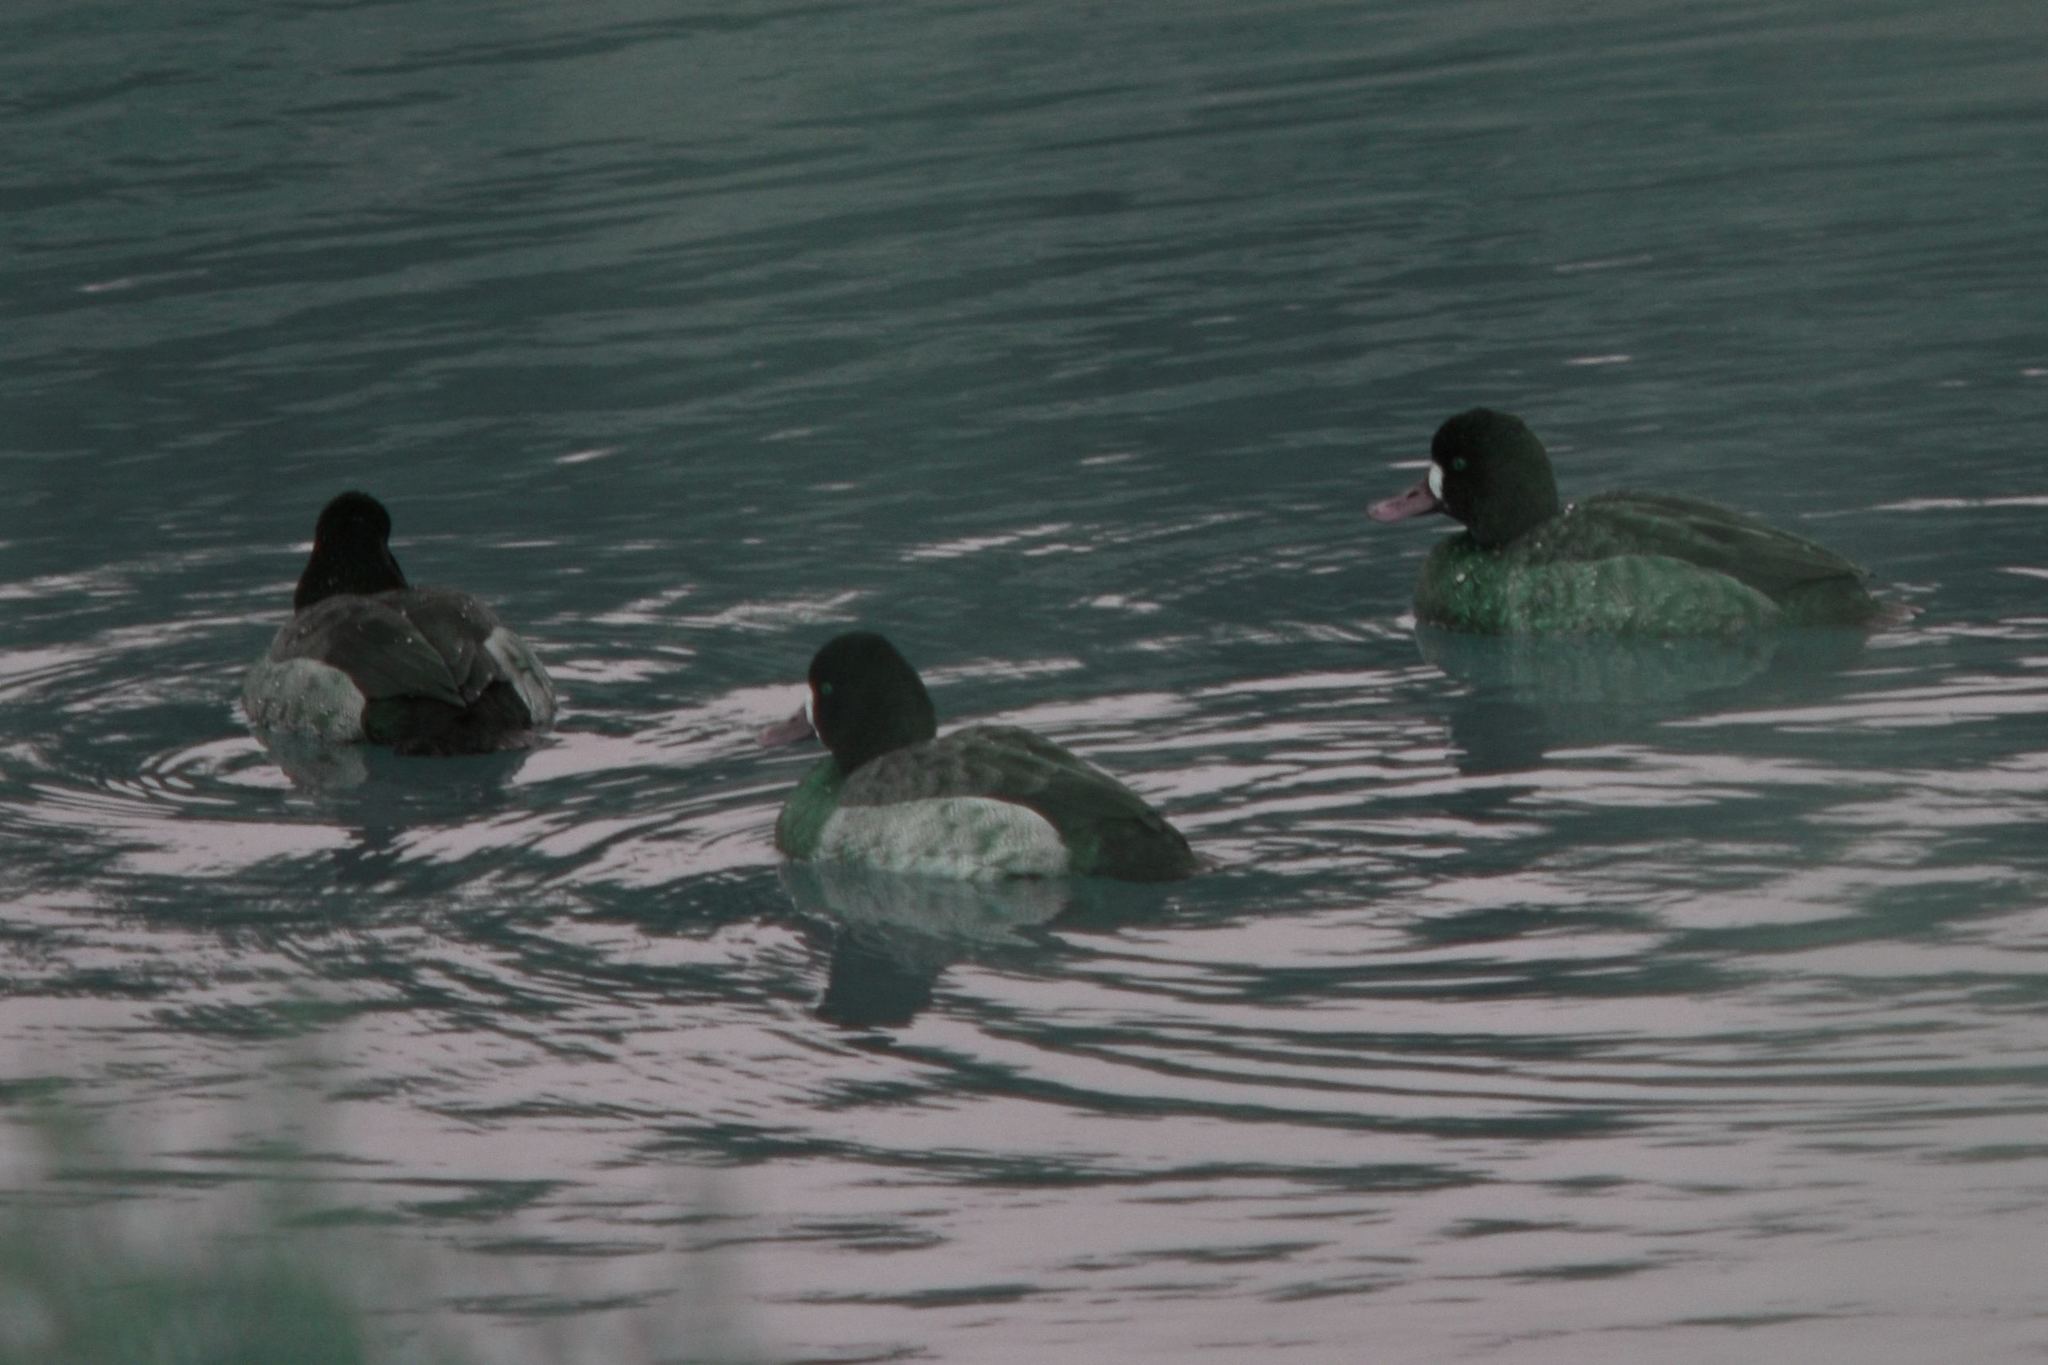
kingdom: Animalia
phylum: Chordata
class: Aves
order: Anseriformes
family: Anatidae
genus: Aythya
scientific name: Aythya affinis
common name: Lesser scaup
